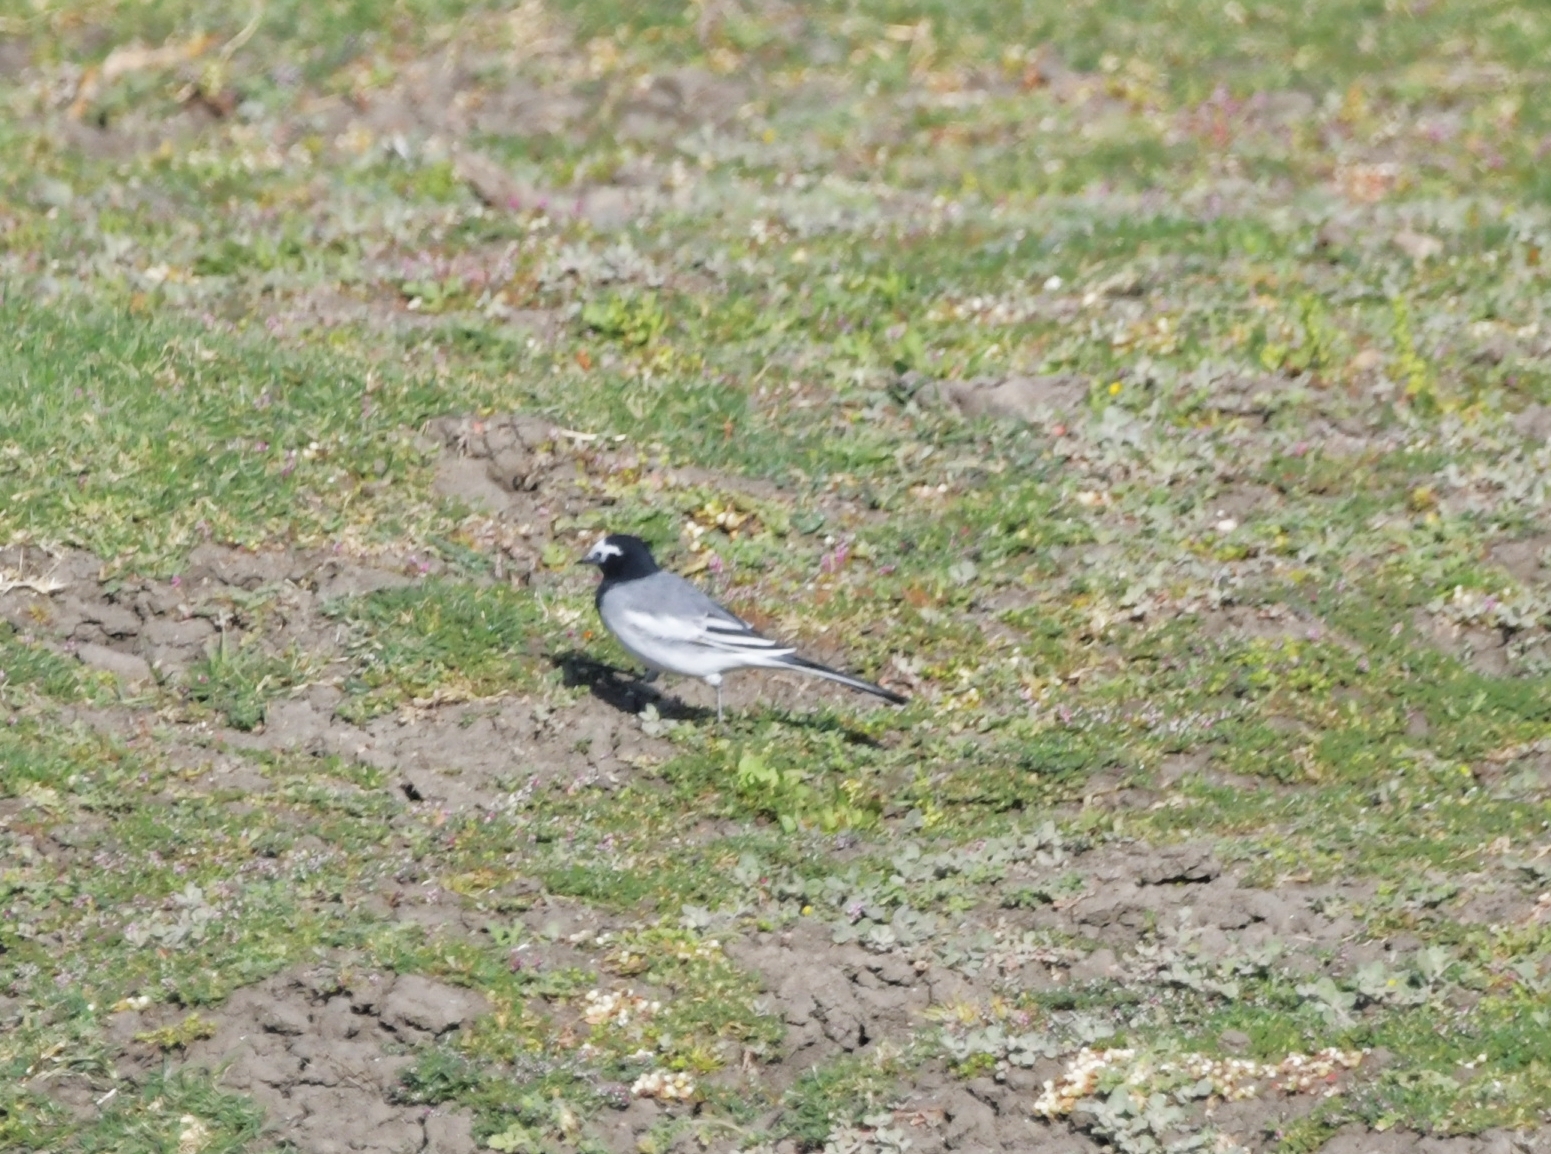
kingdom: Animalia
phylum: Chordata
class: Aves
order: Passeriformes
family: Motacillidae
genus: Motacilla
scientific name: Motacilla alba
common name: White wagtail
